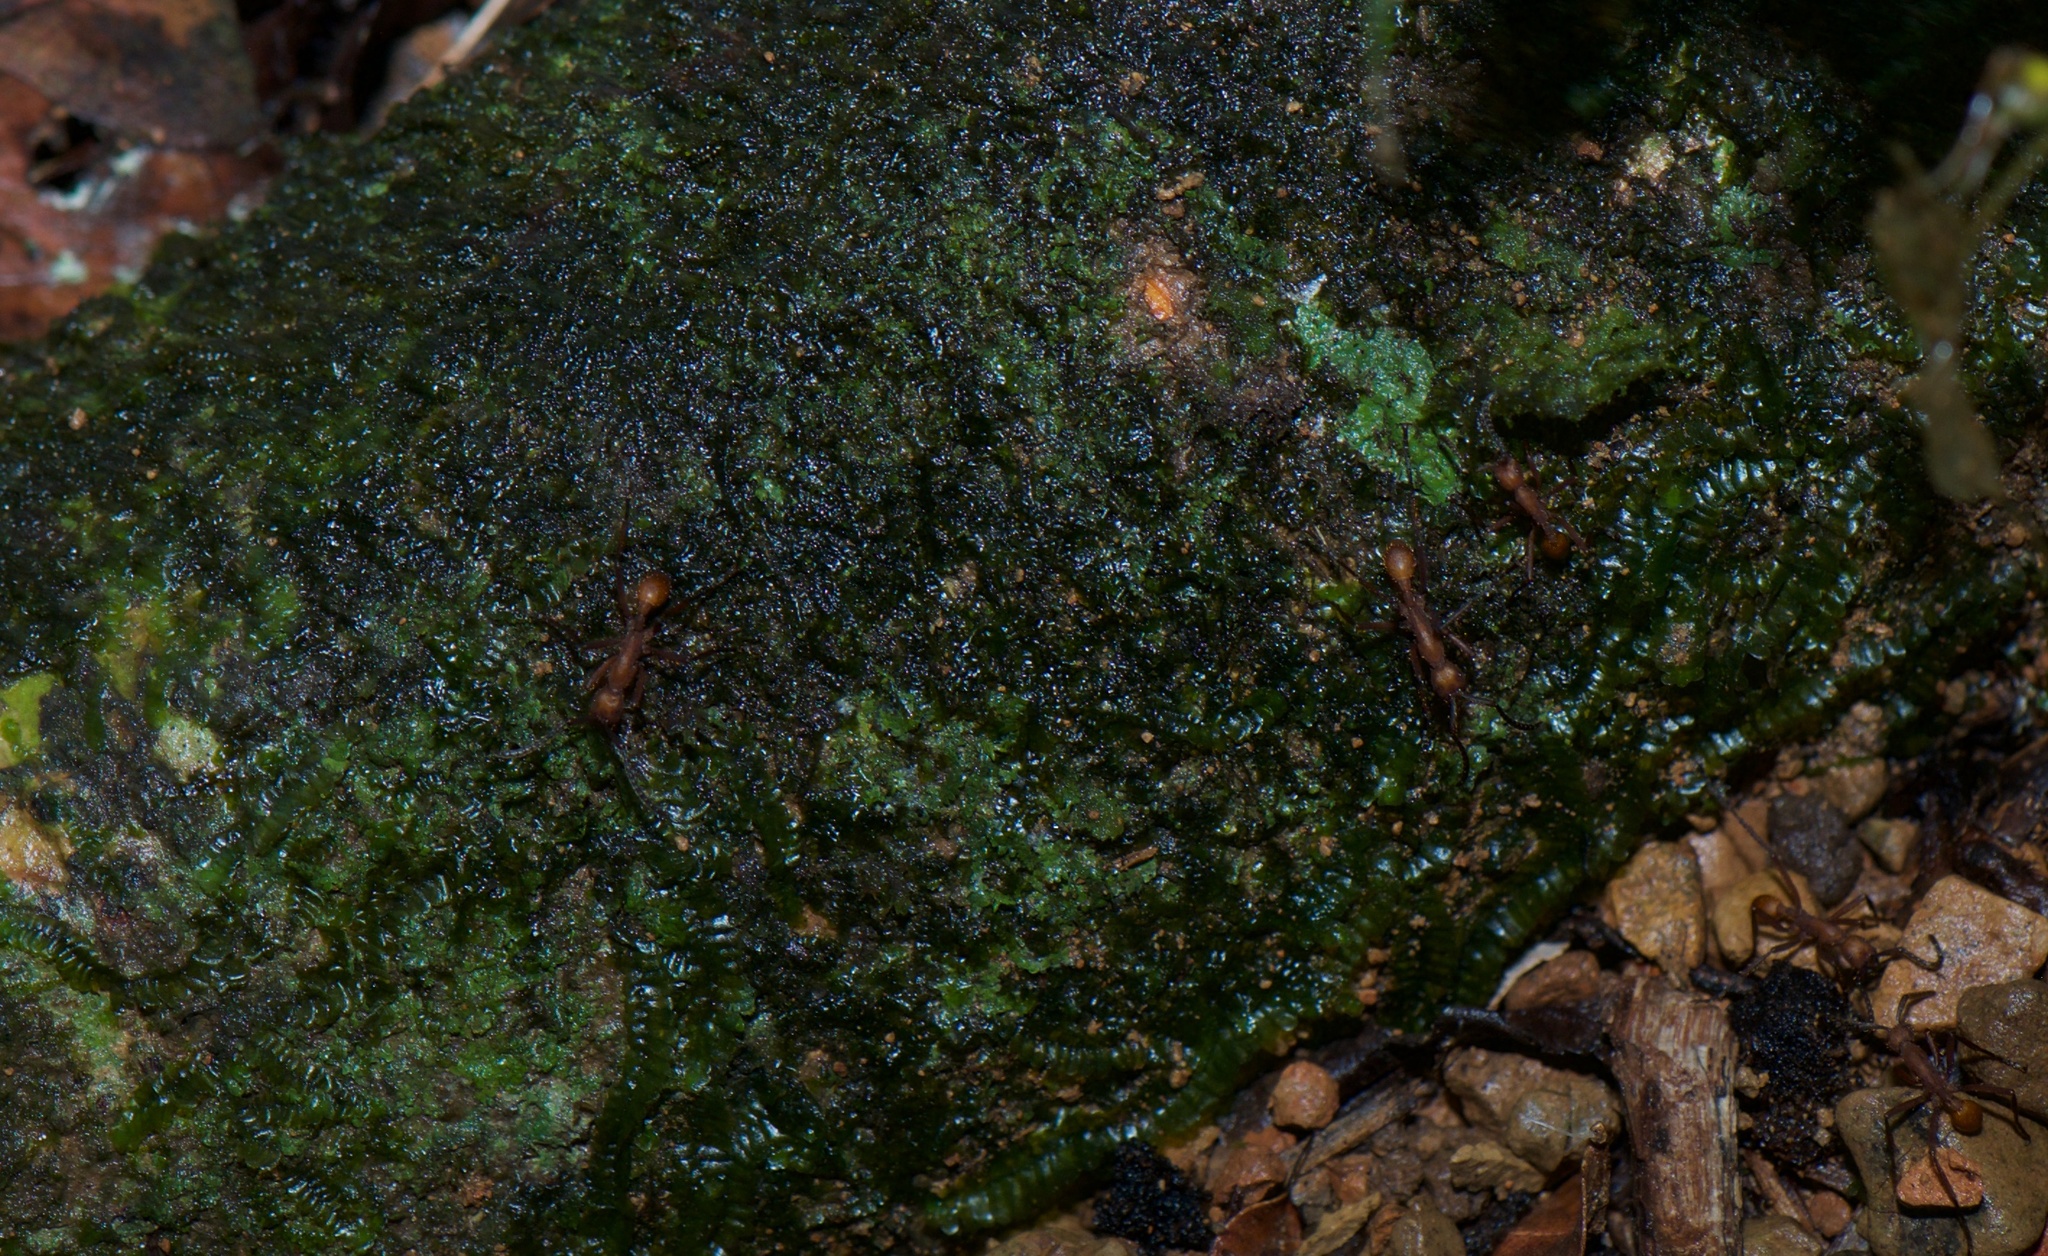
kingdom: Animalia
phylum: Arthropoda
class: Insecta
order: Hymenoptera
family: Formicidae
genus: Eciton
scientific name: Eciton hamatum
